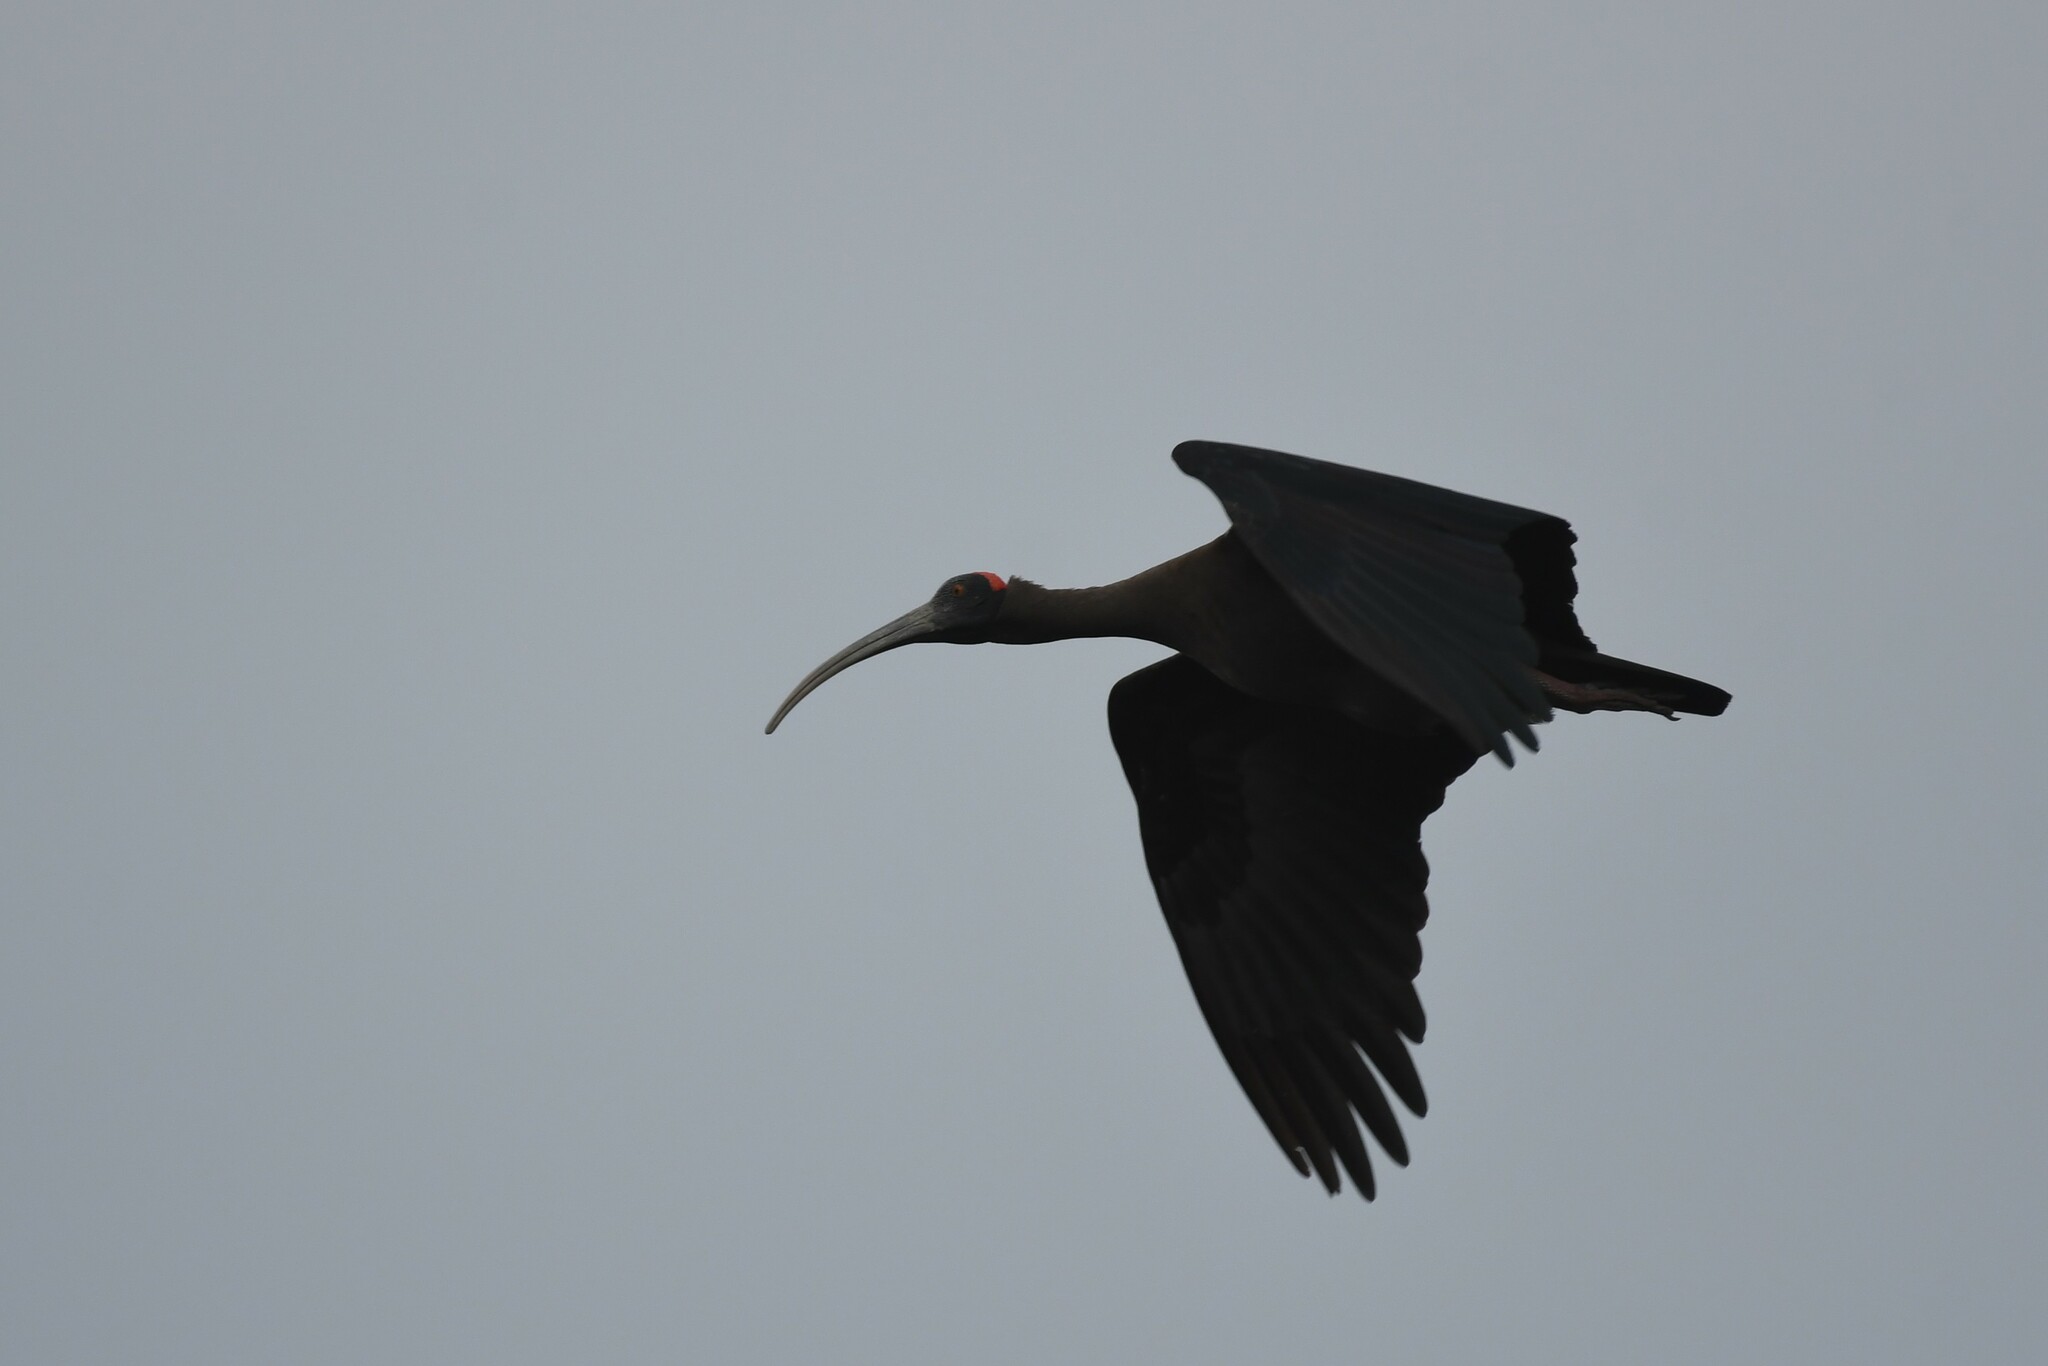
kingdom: Animalia
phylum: Chordata
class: Aves
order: Pelecaniformes
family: Threskiornithidae
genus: Pseudibis
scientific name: Pseudibis papillosa
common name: Red-naped ibis
